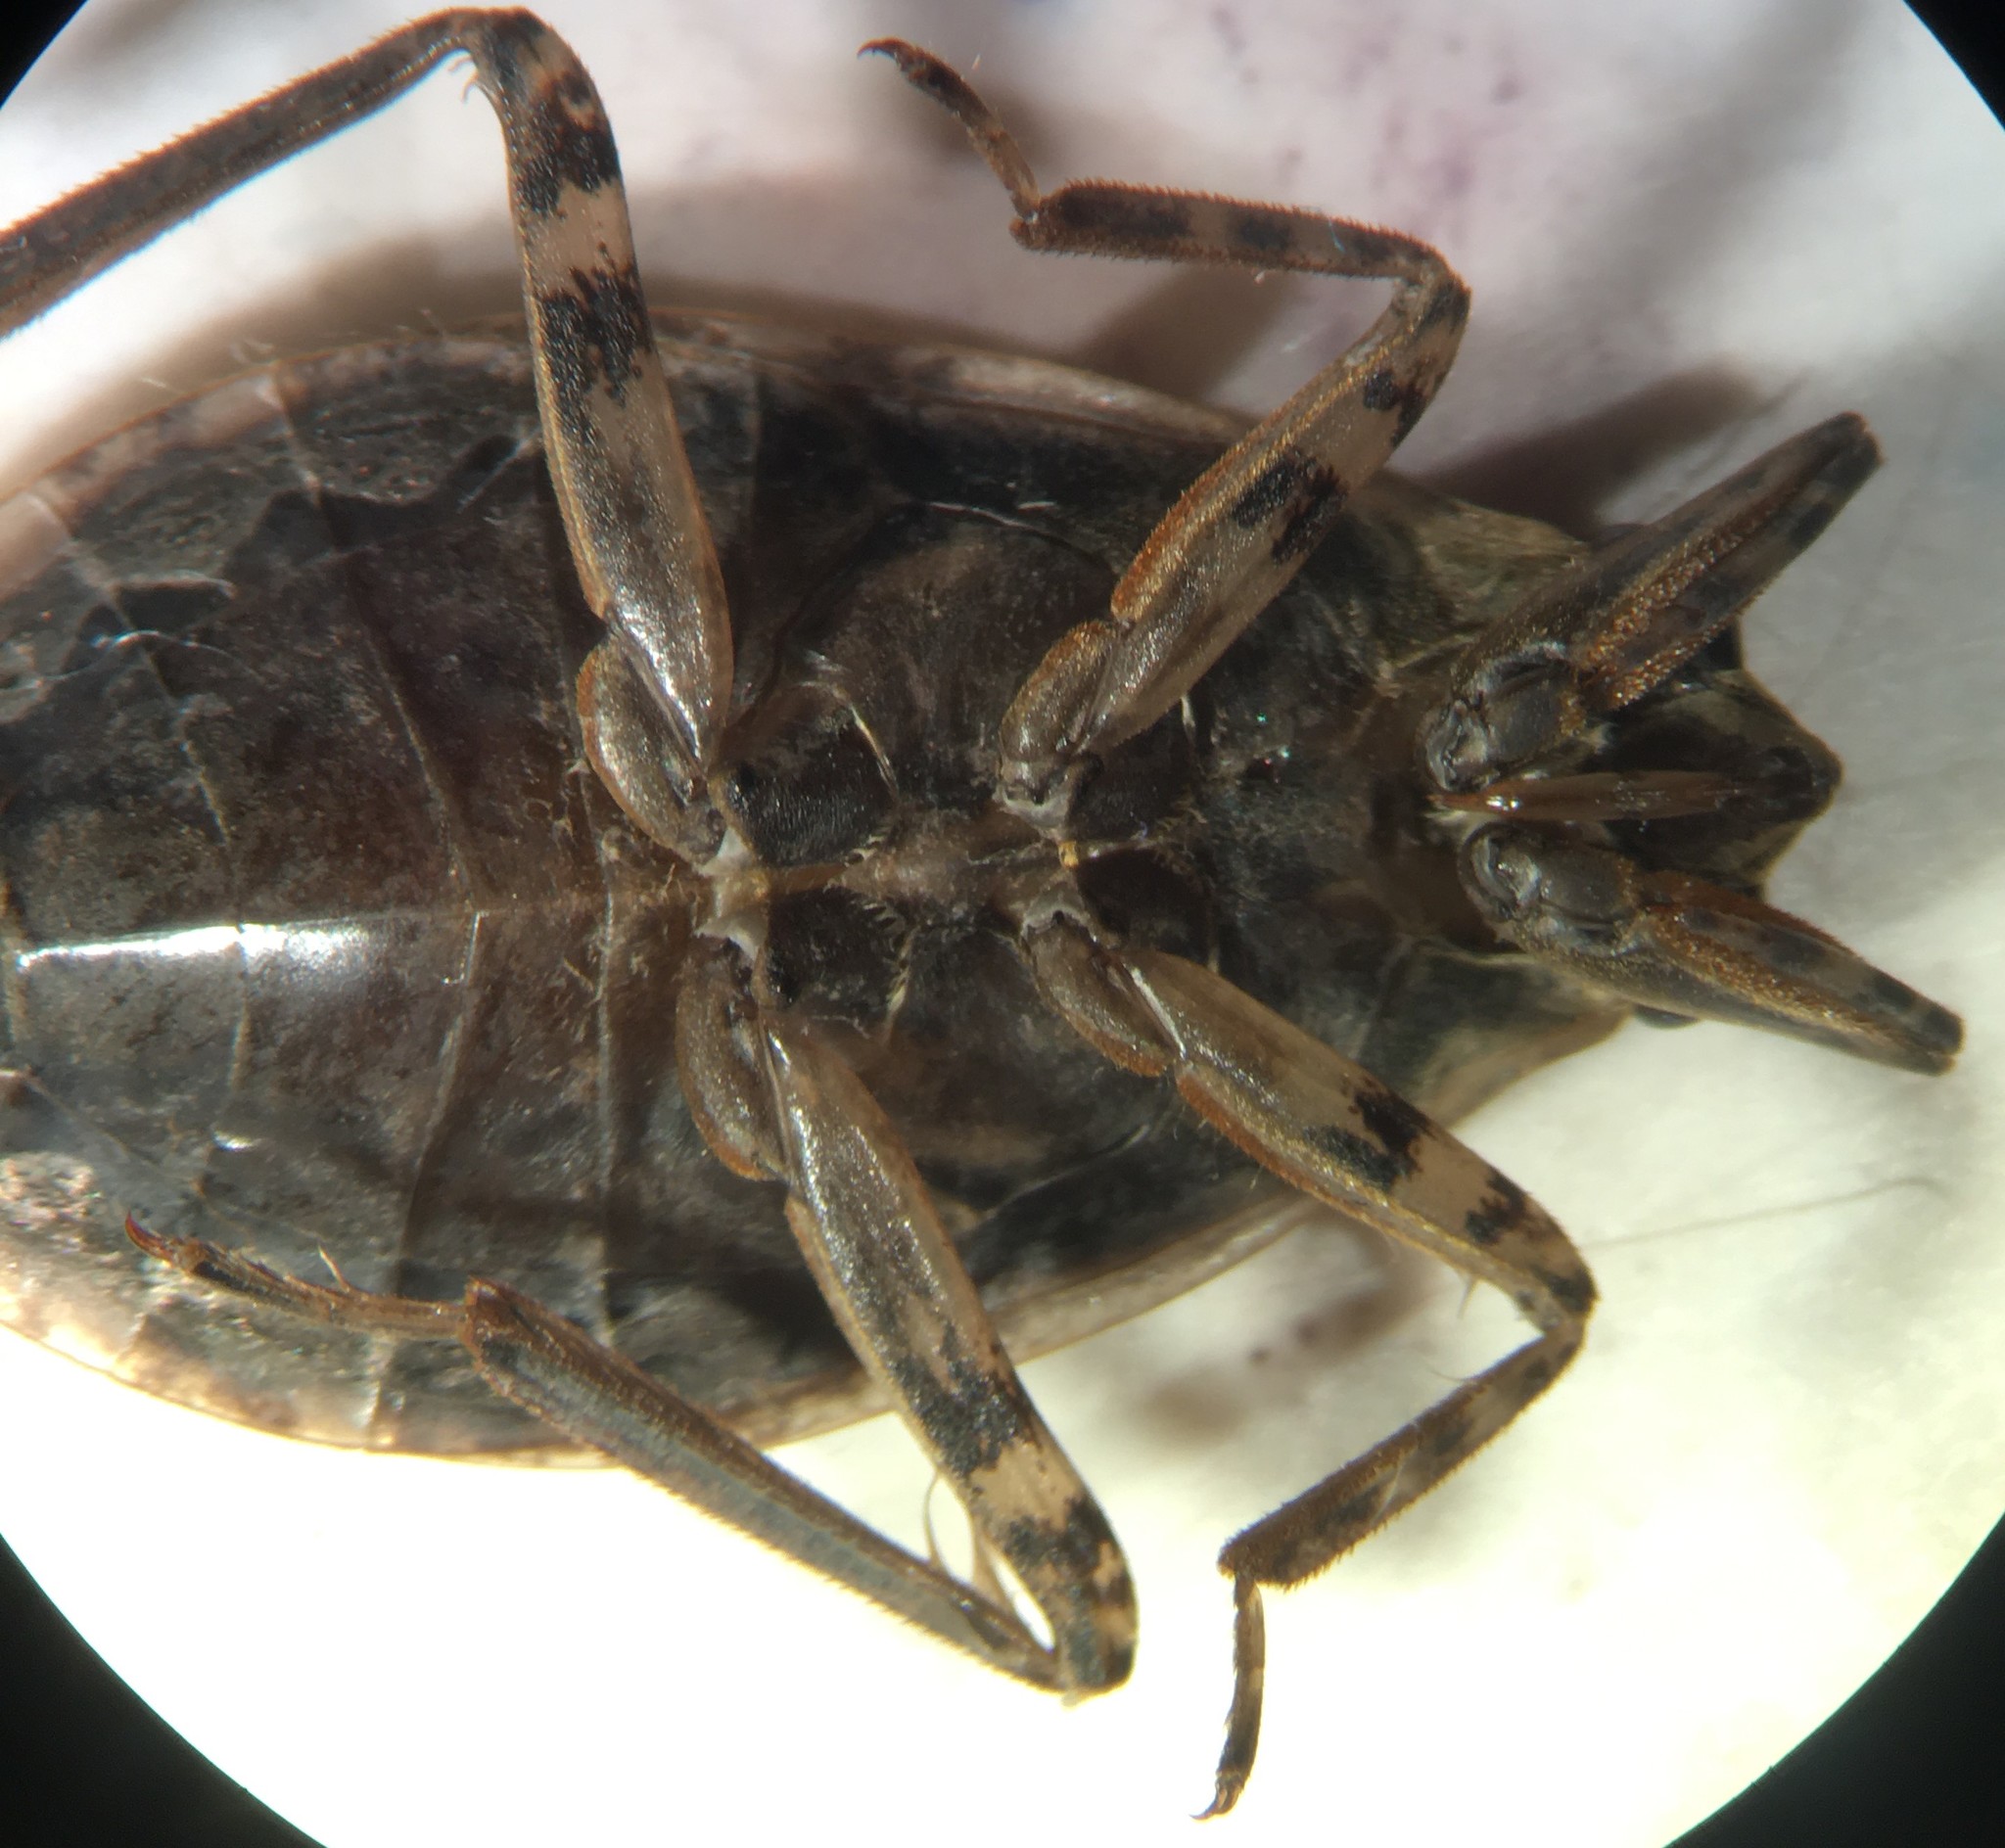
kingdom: Animalia
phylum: Arthropoda
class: Insecta
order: Hemiptera
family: Belostomatidae
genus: Belostoma
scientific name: Belostoma testaceum
